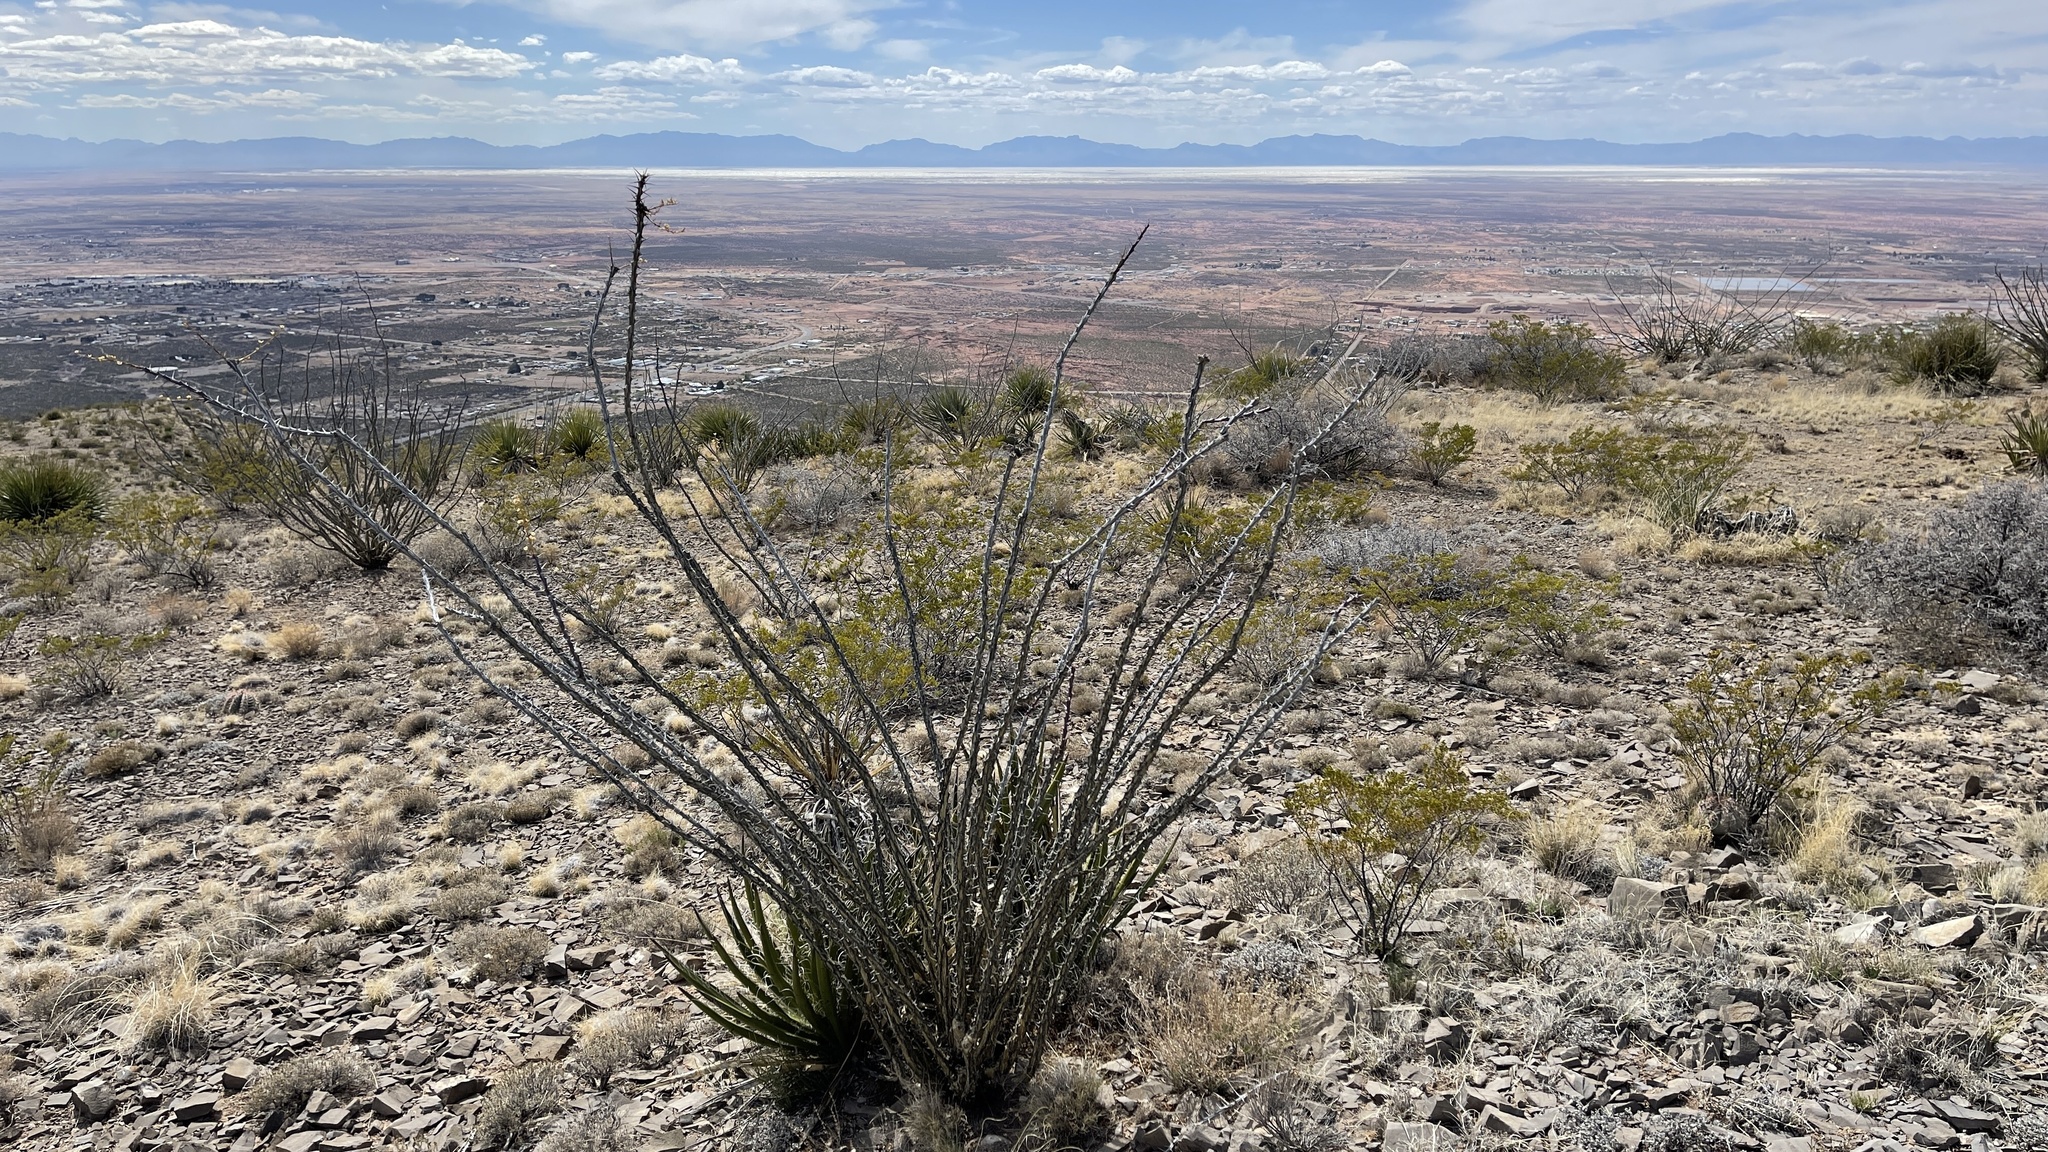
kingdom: Plantae
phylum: Tracheophyta
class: Magnoliopsida
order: Ericales
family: Fouquieriaceae
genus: Fouquieria
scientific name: Fouquieria splendens
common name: Vine-cactus
